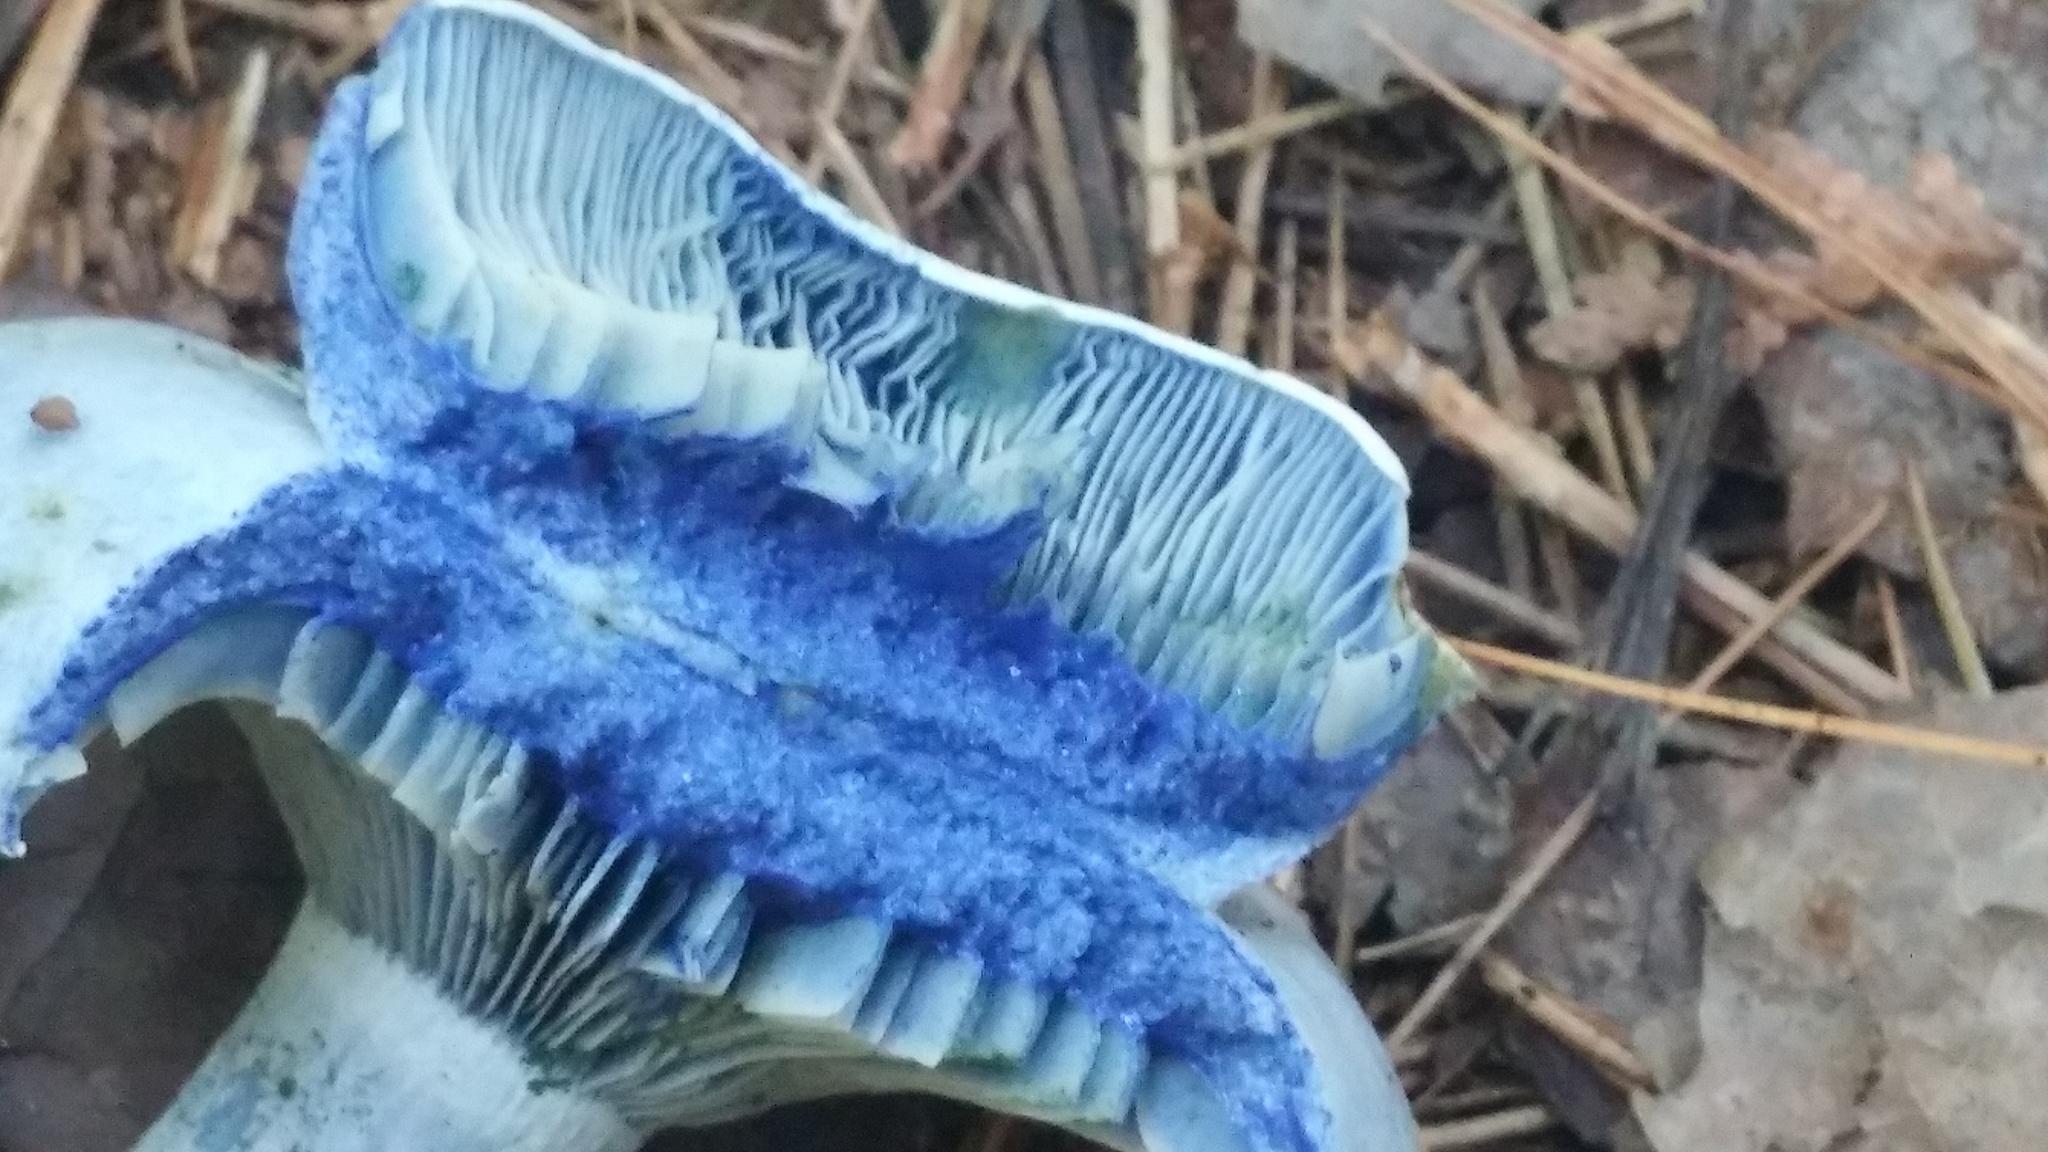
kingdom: Fungi
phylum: Basidiomycota
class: Agaricomycetes
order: Russulales
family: Russulaceae
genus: Lactarius
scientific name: Lactarius indigo
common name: Indigo milk cap
